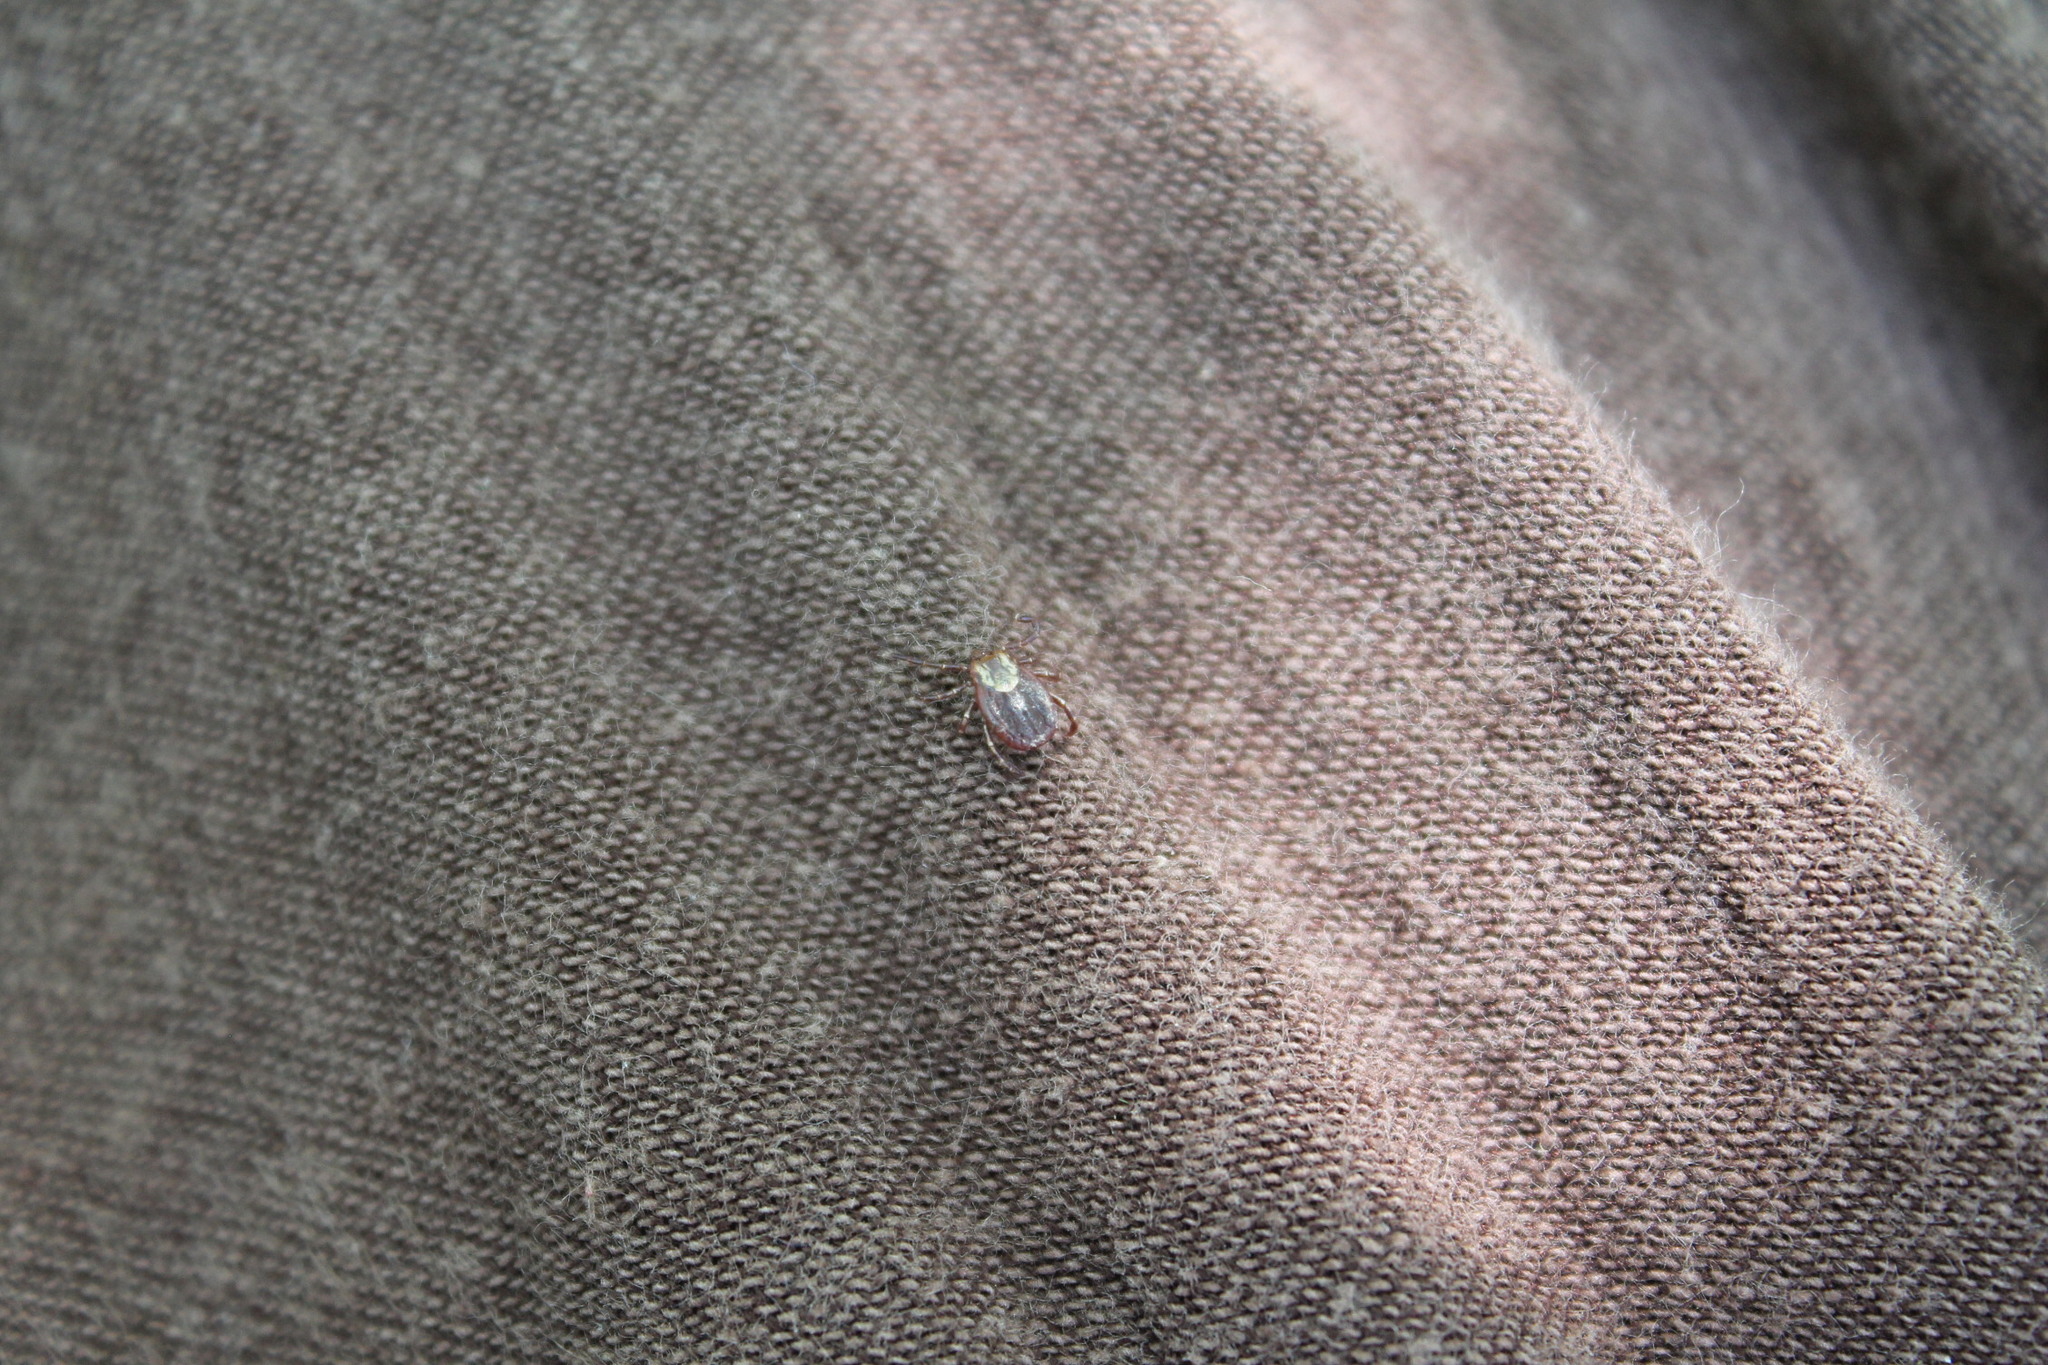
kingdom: Animalia
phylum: Arthropoda
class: Arachnida
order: Ixodida
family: Ixodidae
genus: Dermacentor
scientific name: Dermacentor variabilis
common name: American dog tick
